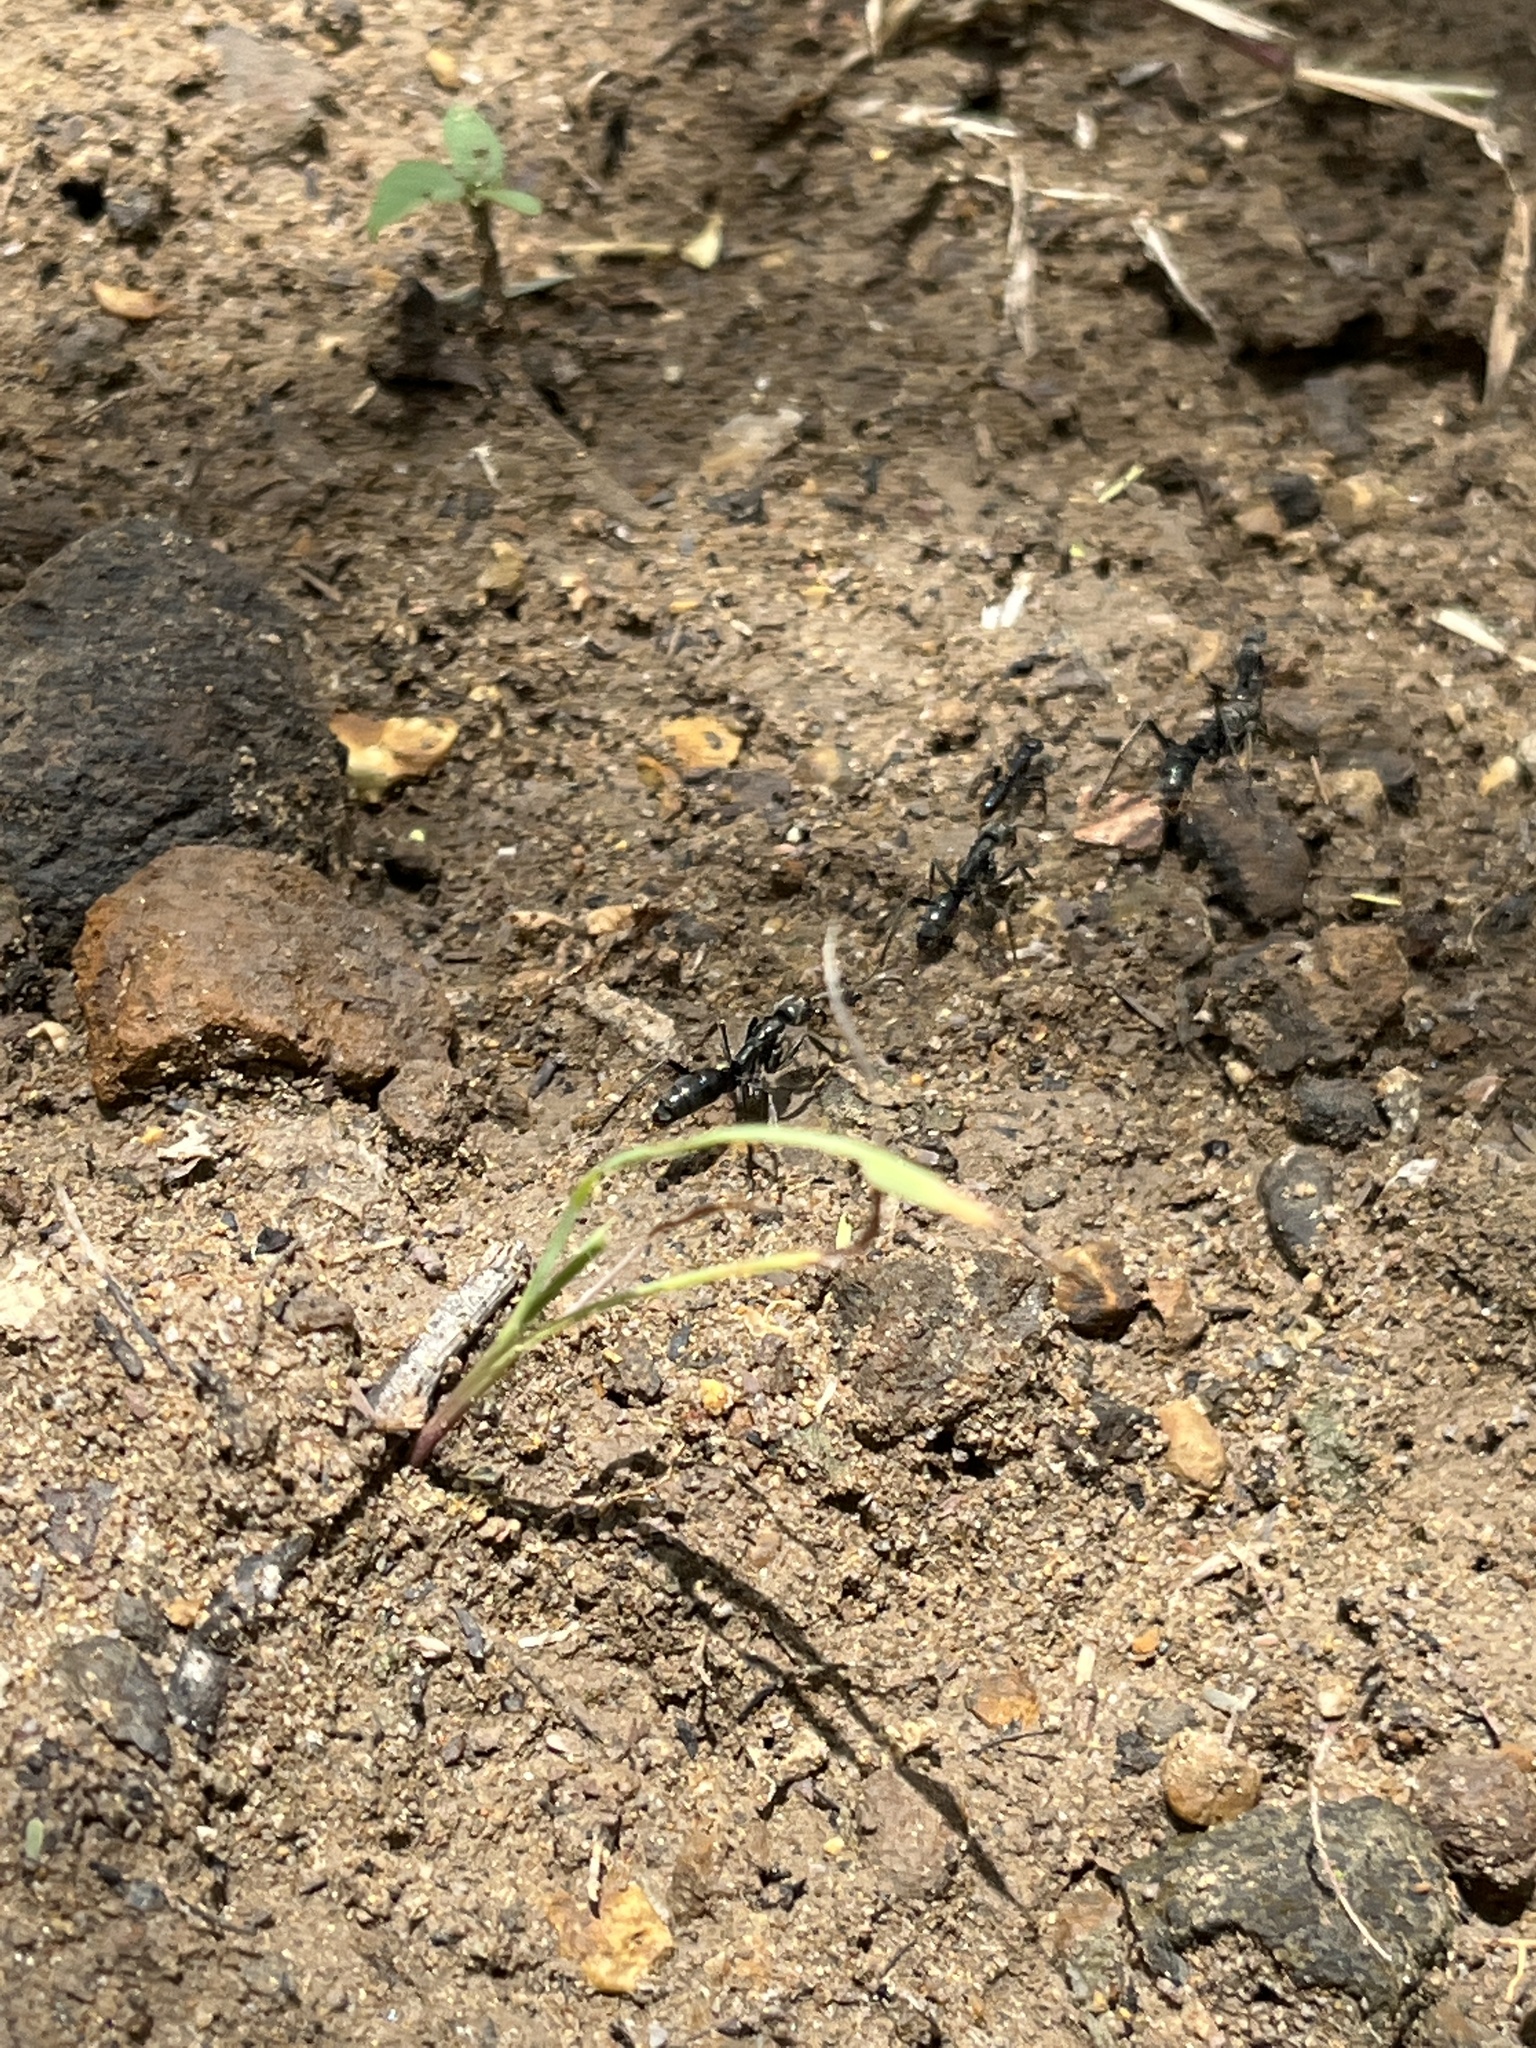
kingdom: Animalia
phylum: Arthropoda
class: Insecta
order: Hymenoptera
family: Formicidae
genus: Megaponera
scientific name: Megaponera analis
